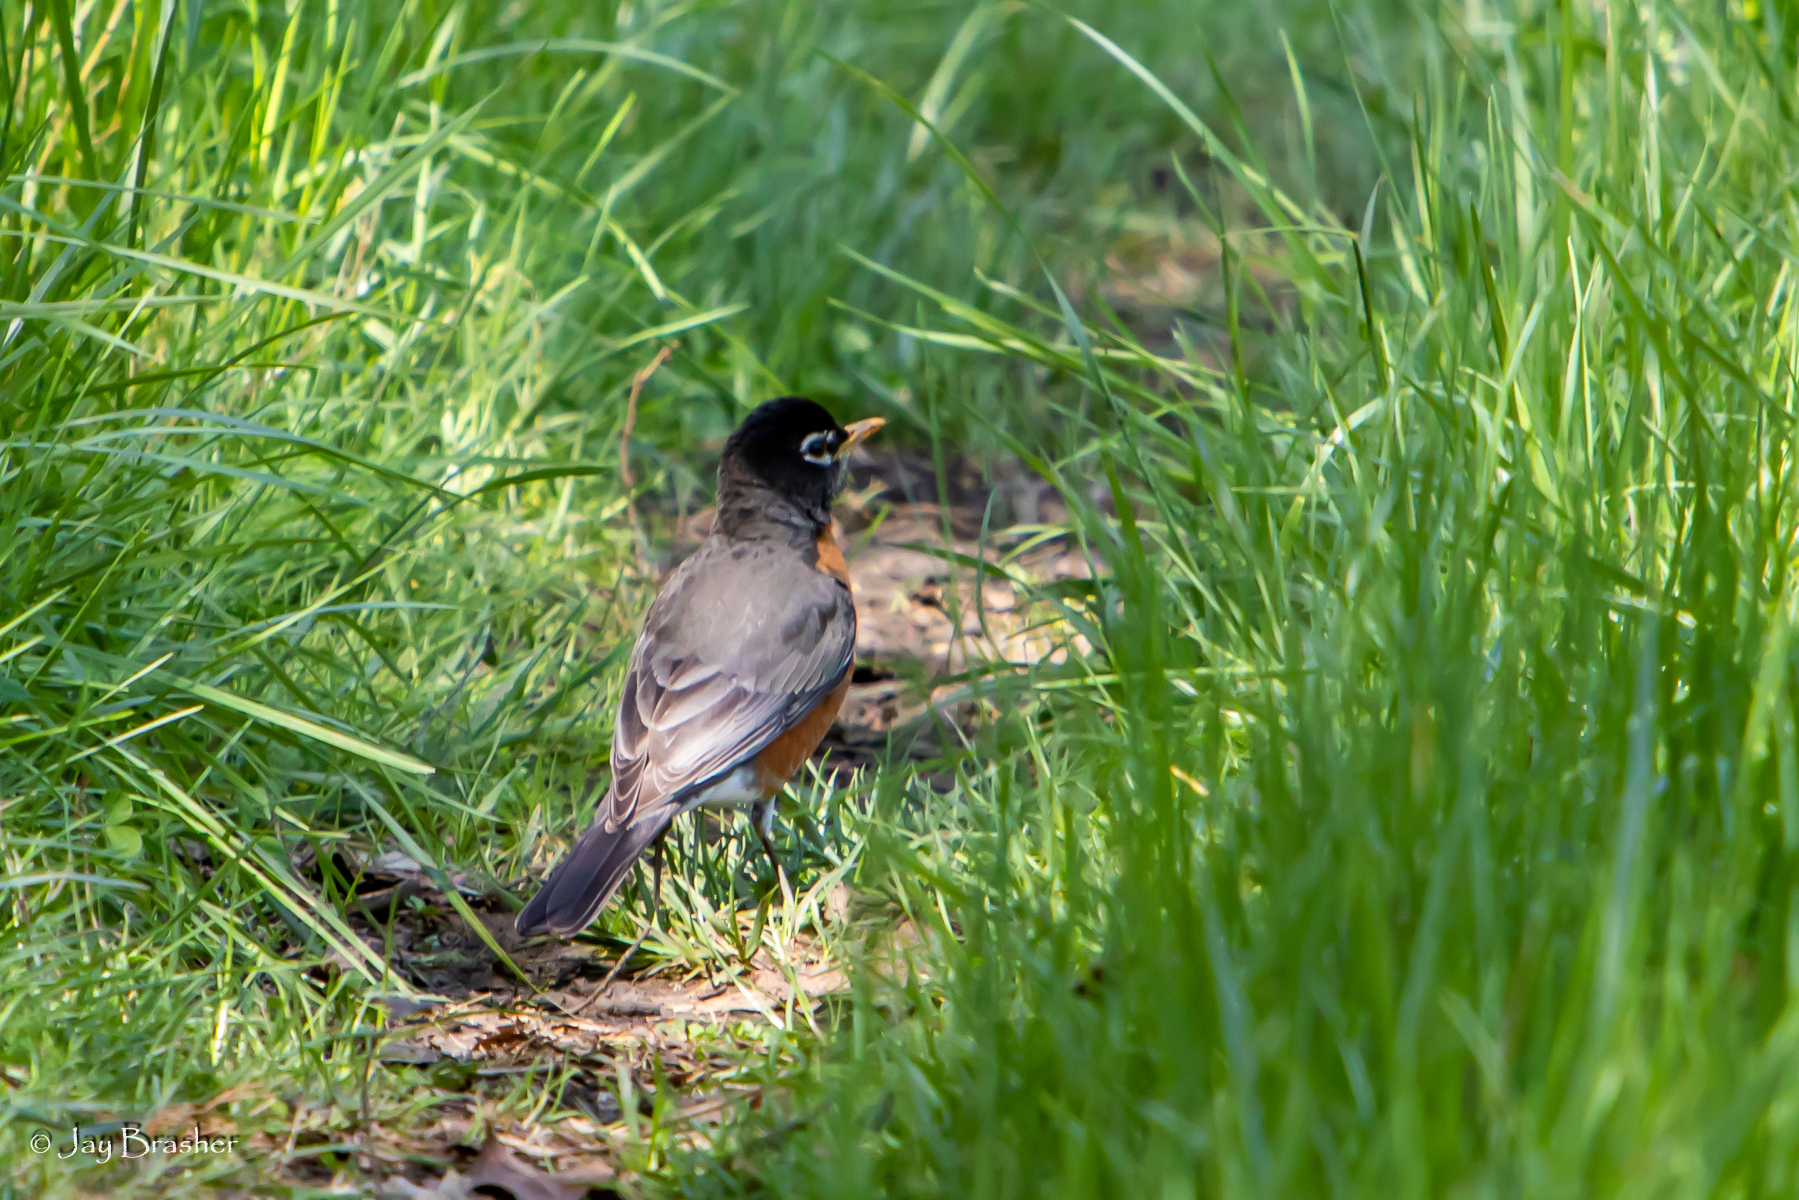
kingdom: Animalia
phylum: Chordata
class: Aves
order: Passeriformes
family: Turdidae
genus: Turdus
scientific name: Turdus migratorius
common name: American robin
